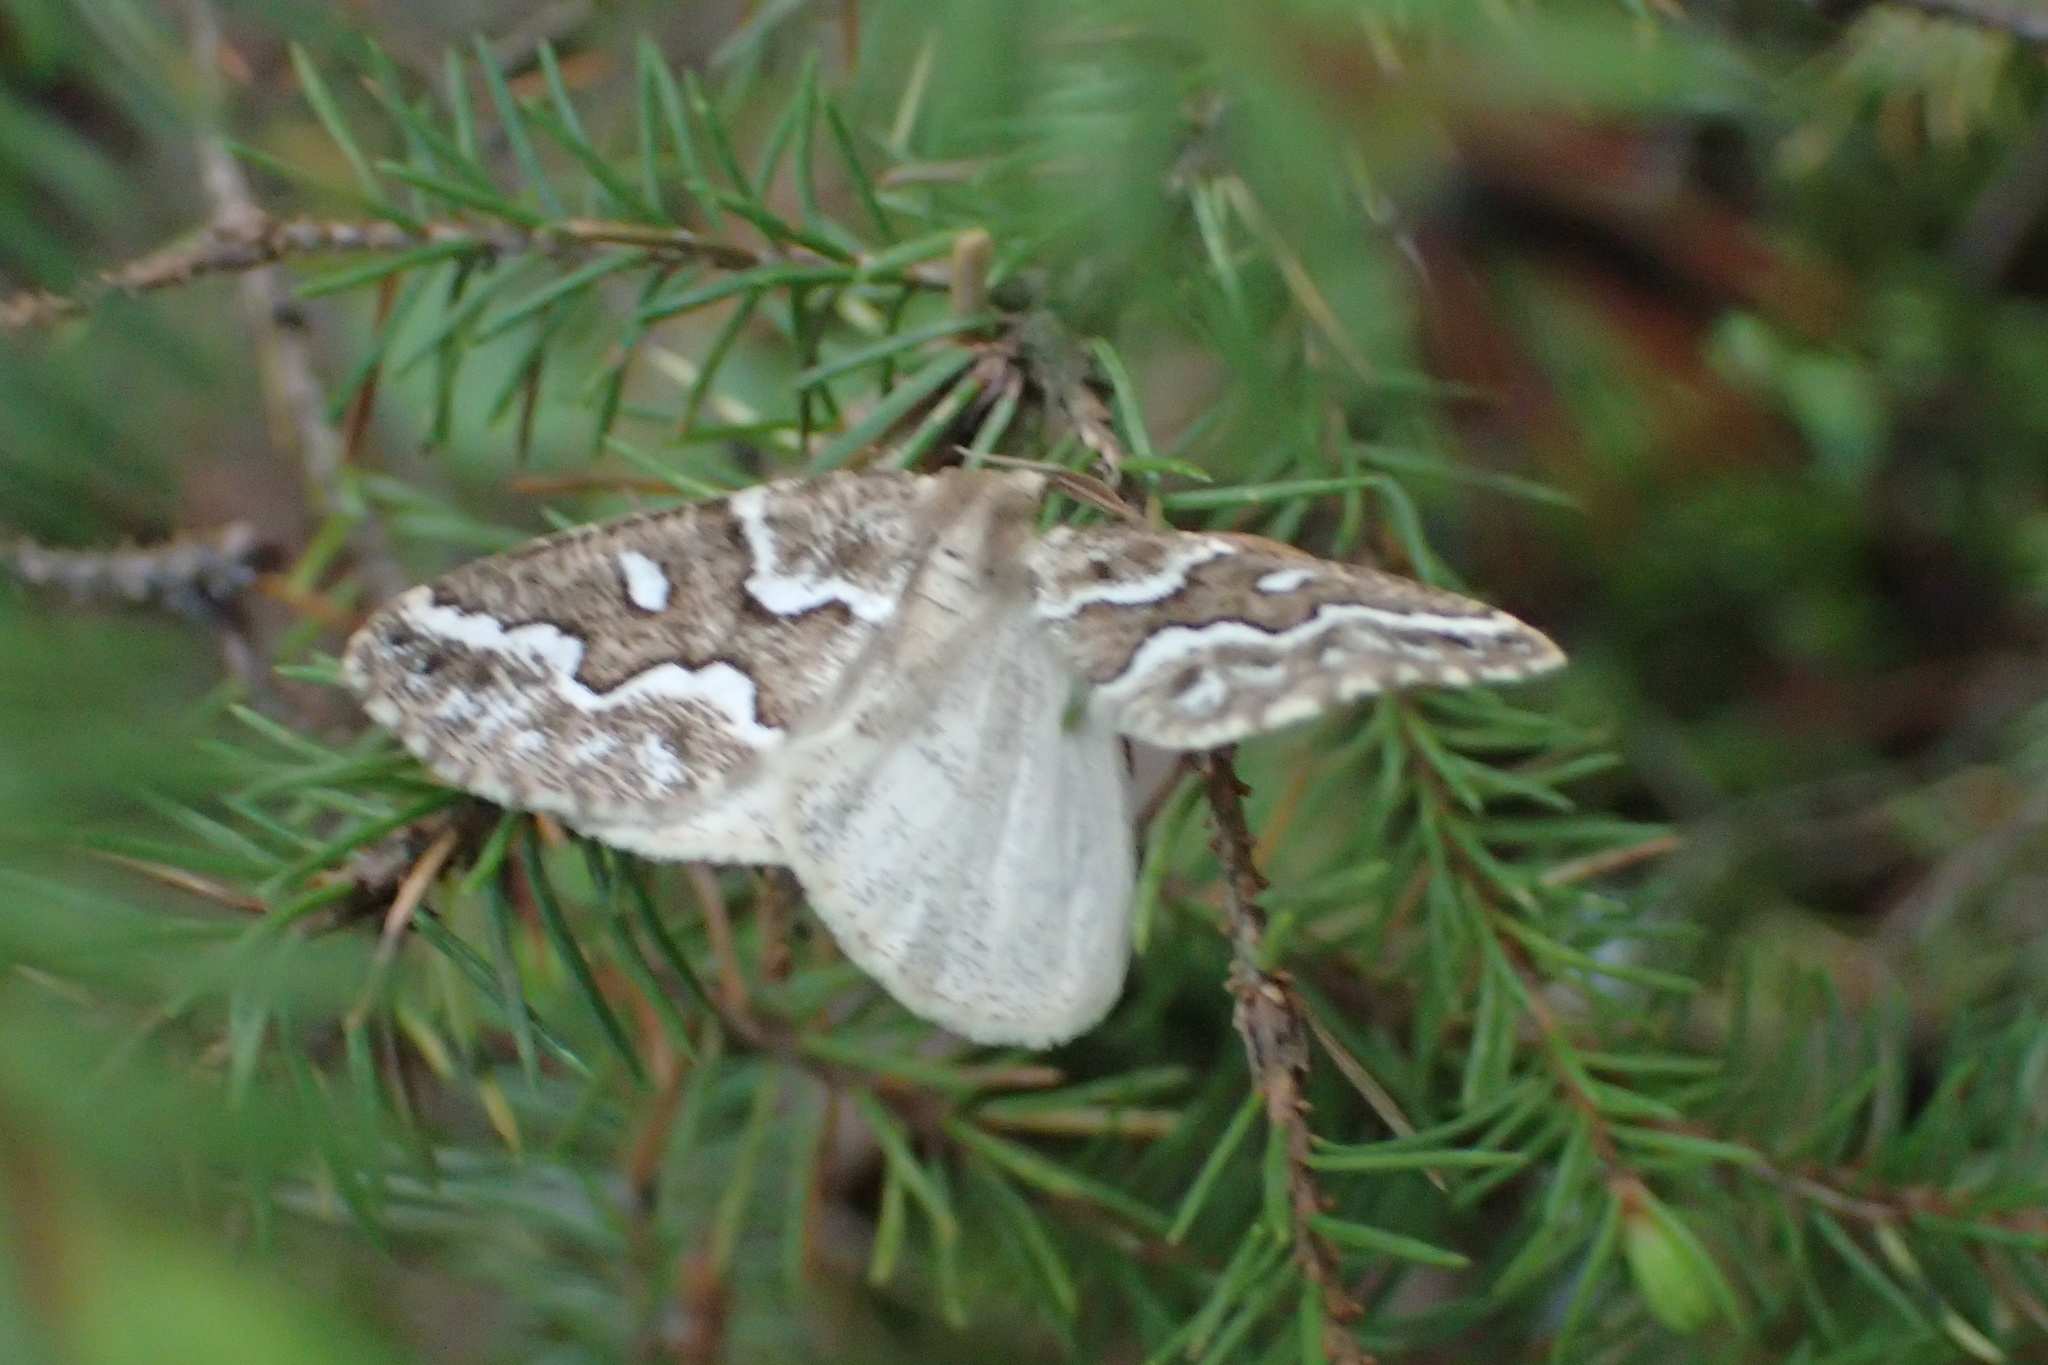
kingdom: Animalia
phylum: Arthropoda
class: Insecta
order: Lepidoptera
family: Geometridae
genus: Caripeta
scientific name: Caripeta divisata
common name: Gray spruce looper
